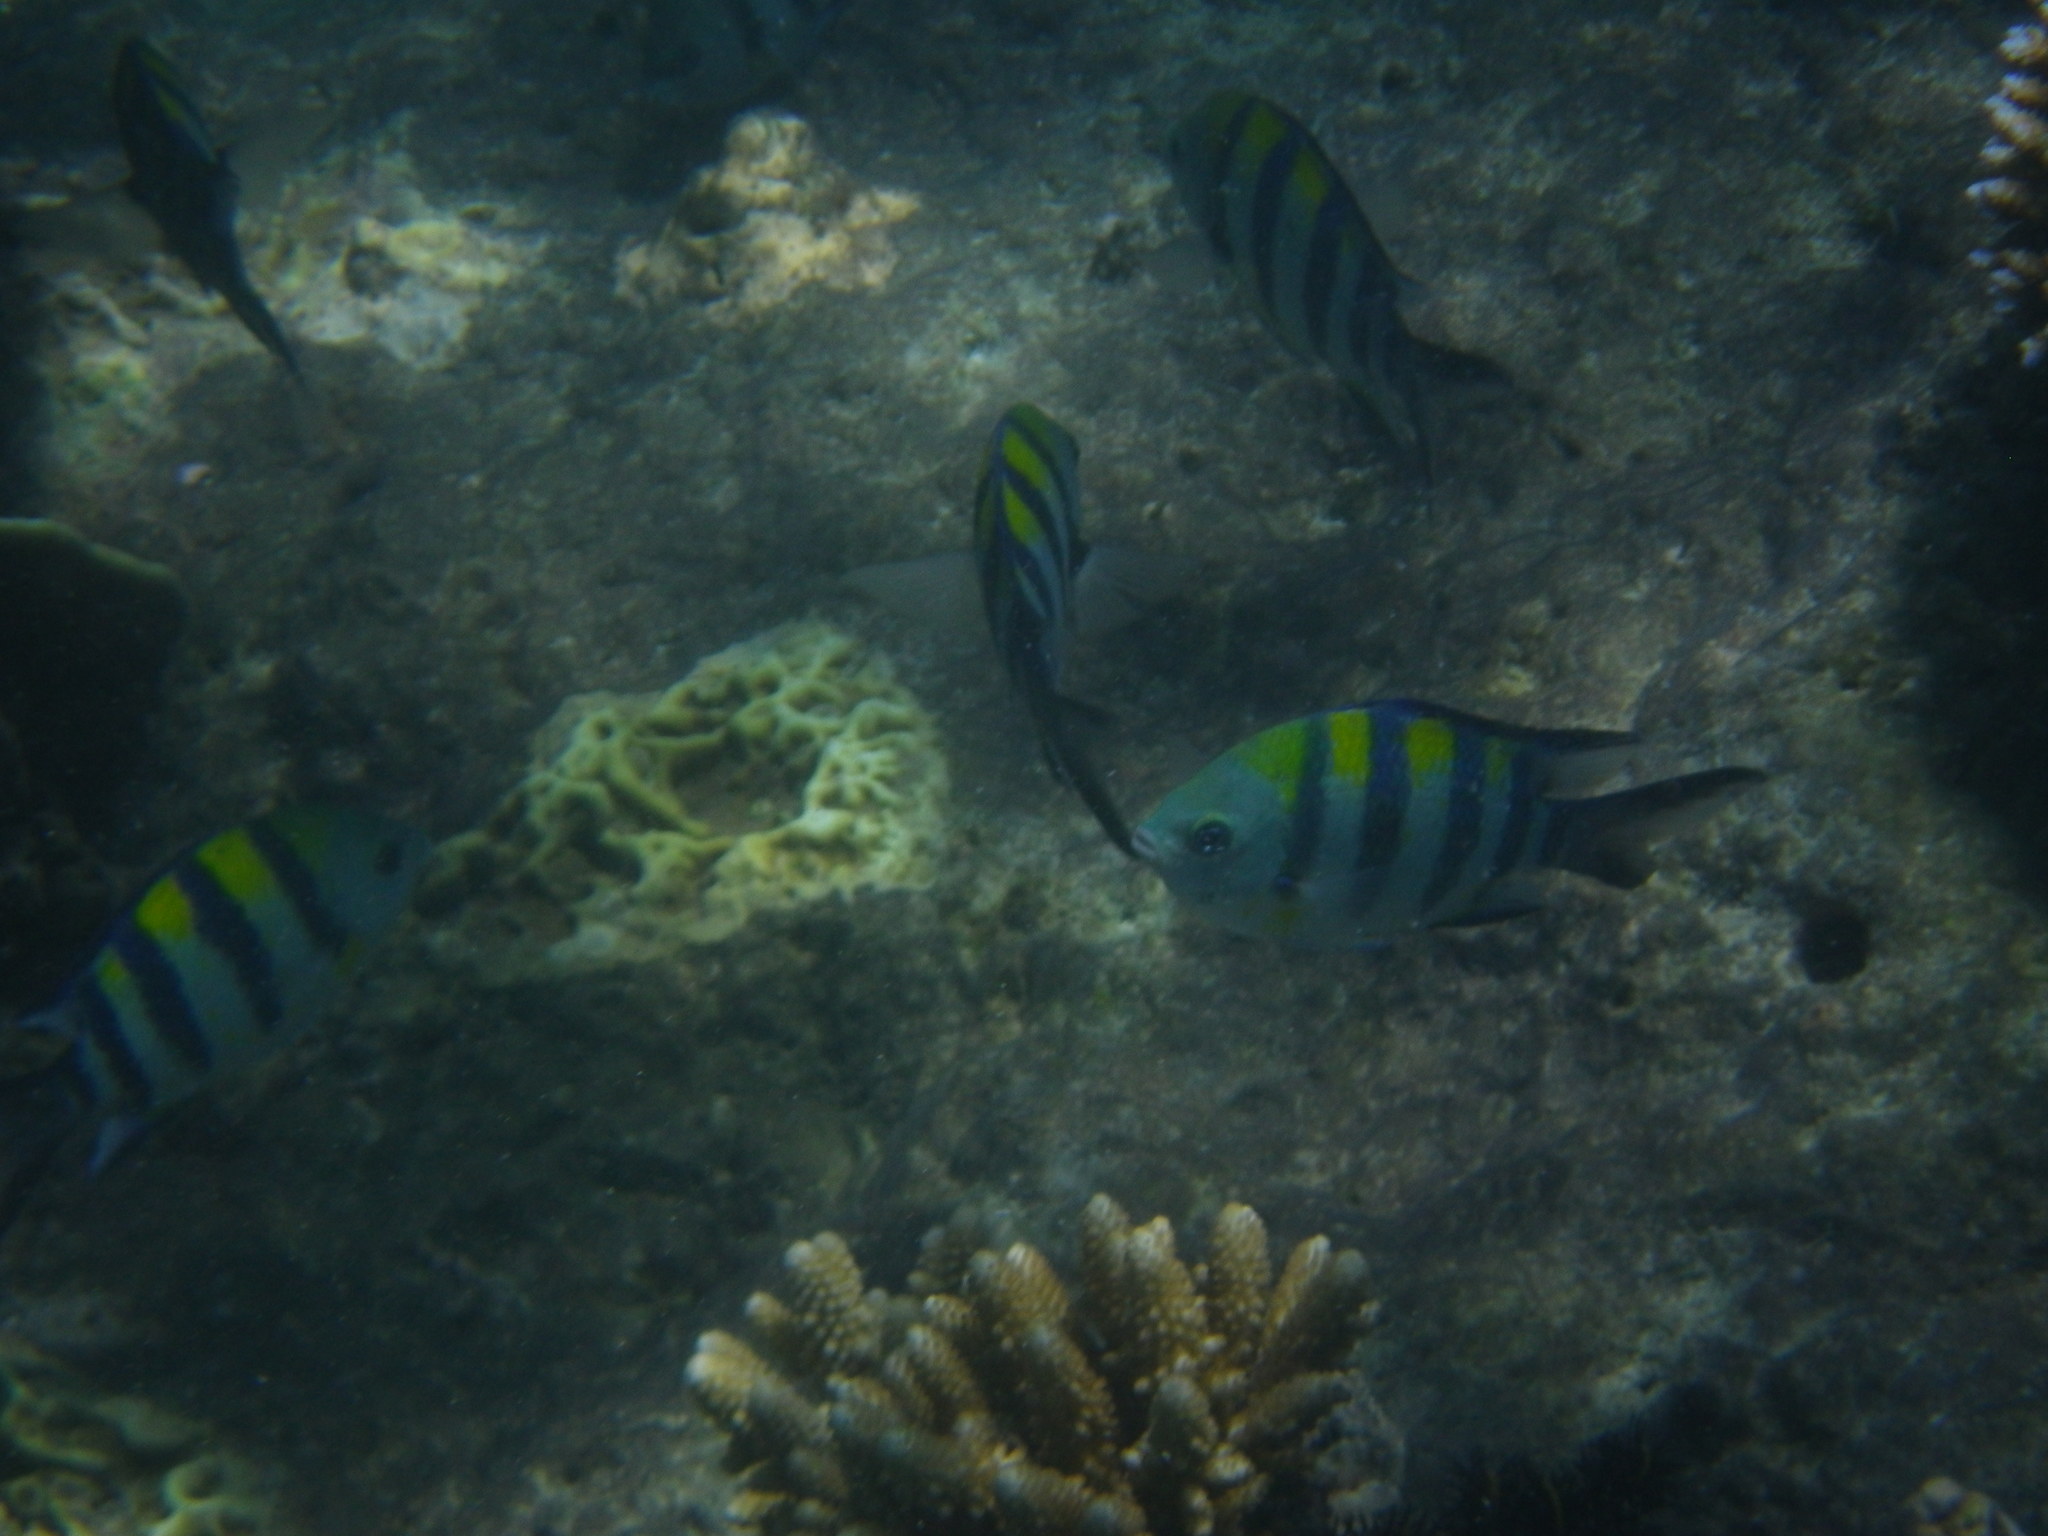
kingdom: Animalia
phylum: Chordata
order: Perciformes
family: Pomacentridae
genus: Abudefduf
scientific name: Abudefduf vaigiensis
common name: Indo-pacific sergeant
